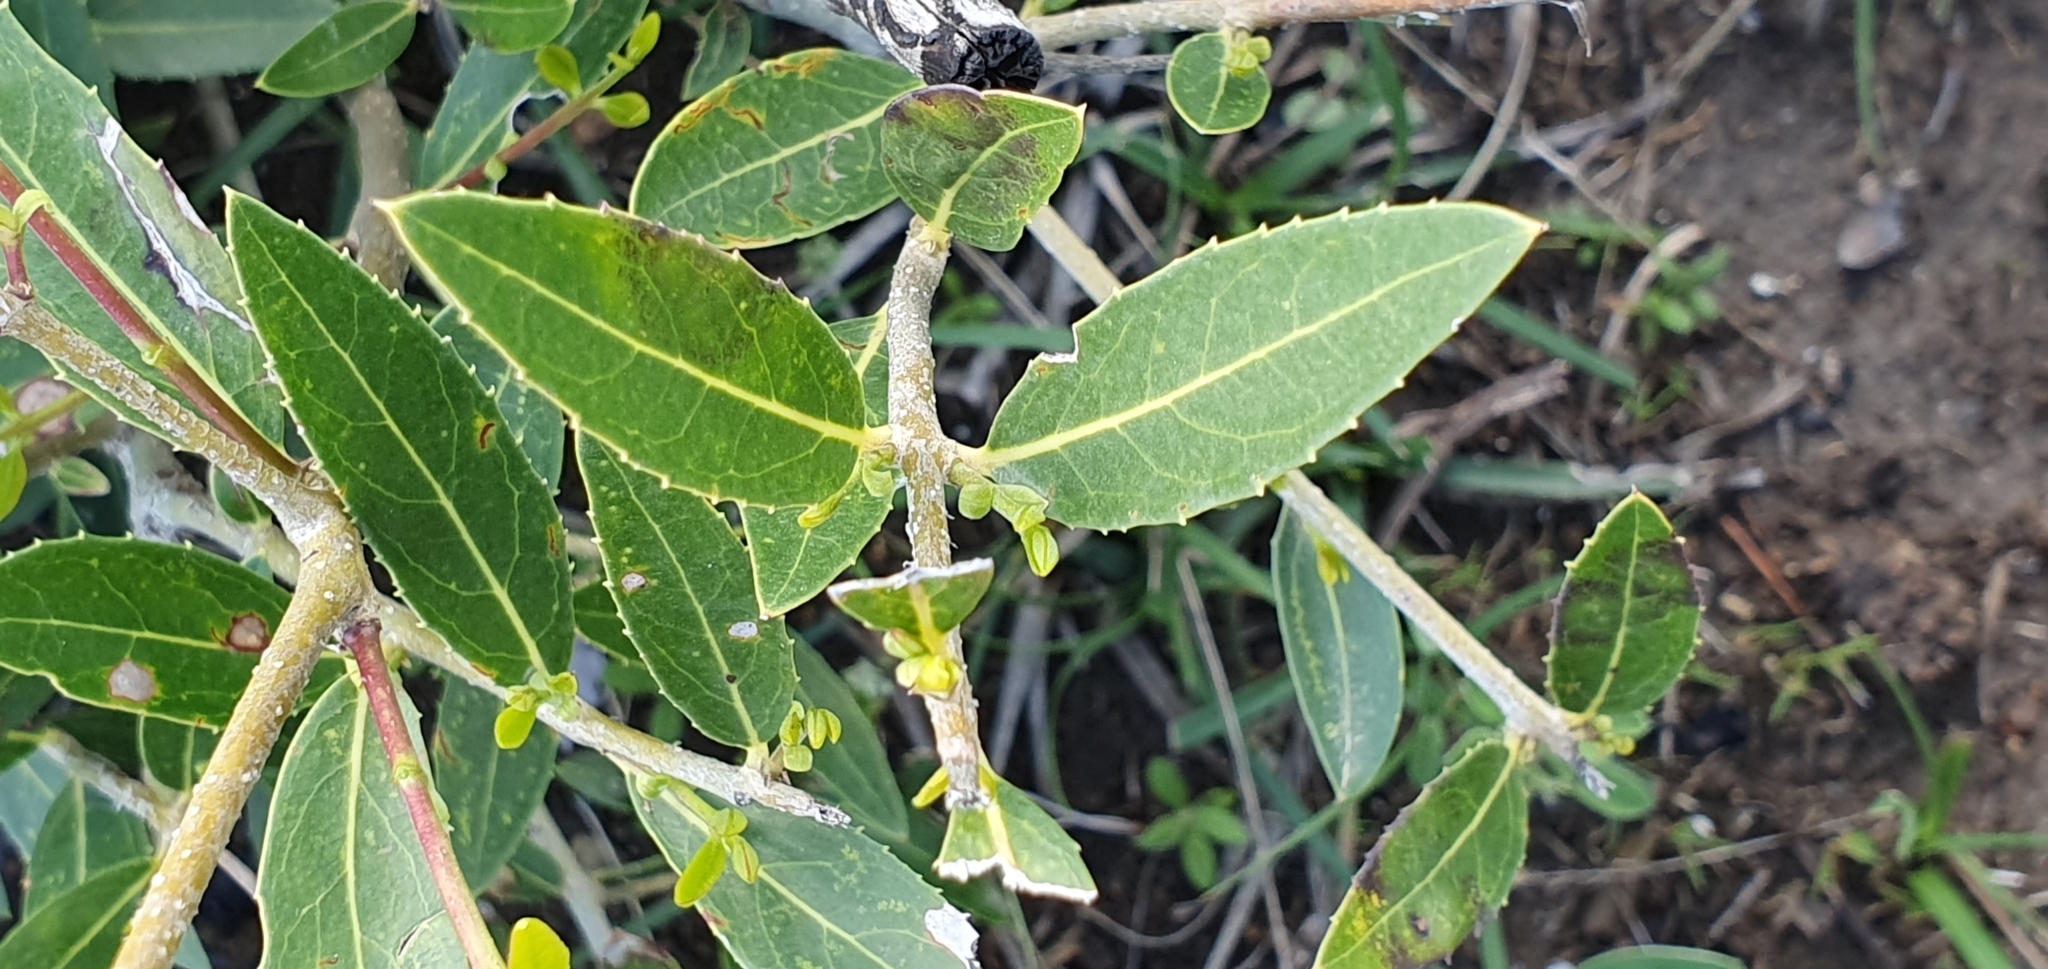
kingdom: Plantae
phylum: Tracheophyta
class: Magnoliopsida
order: Lamiales
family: Oleaceae
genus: Phillyrea
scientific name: Phillyrea latifolia
